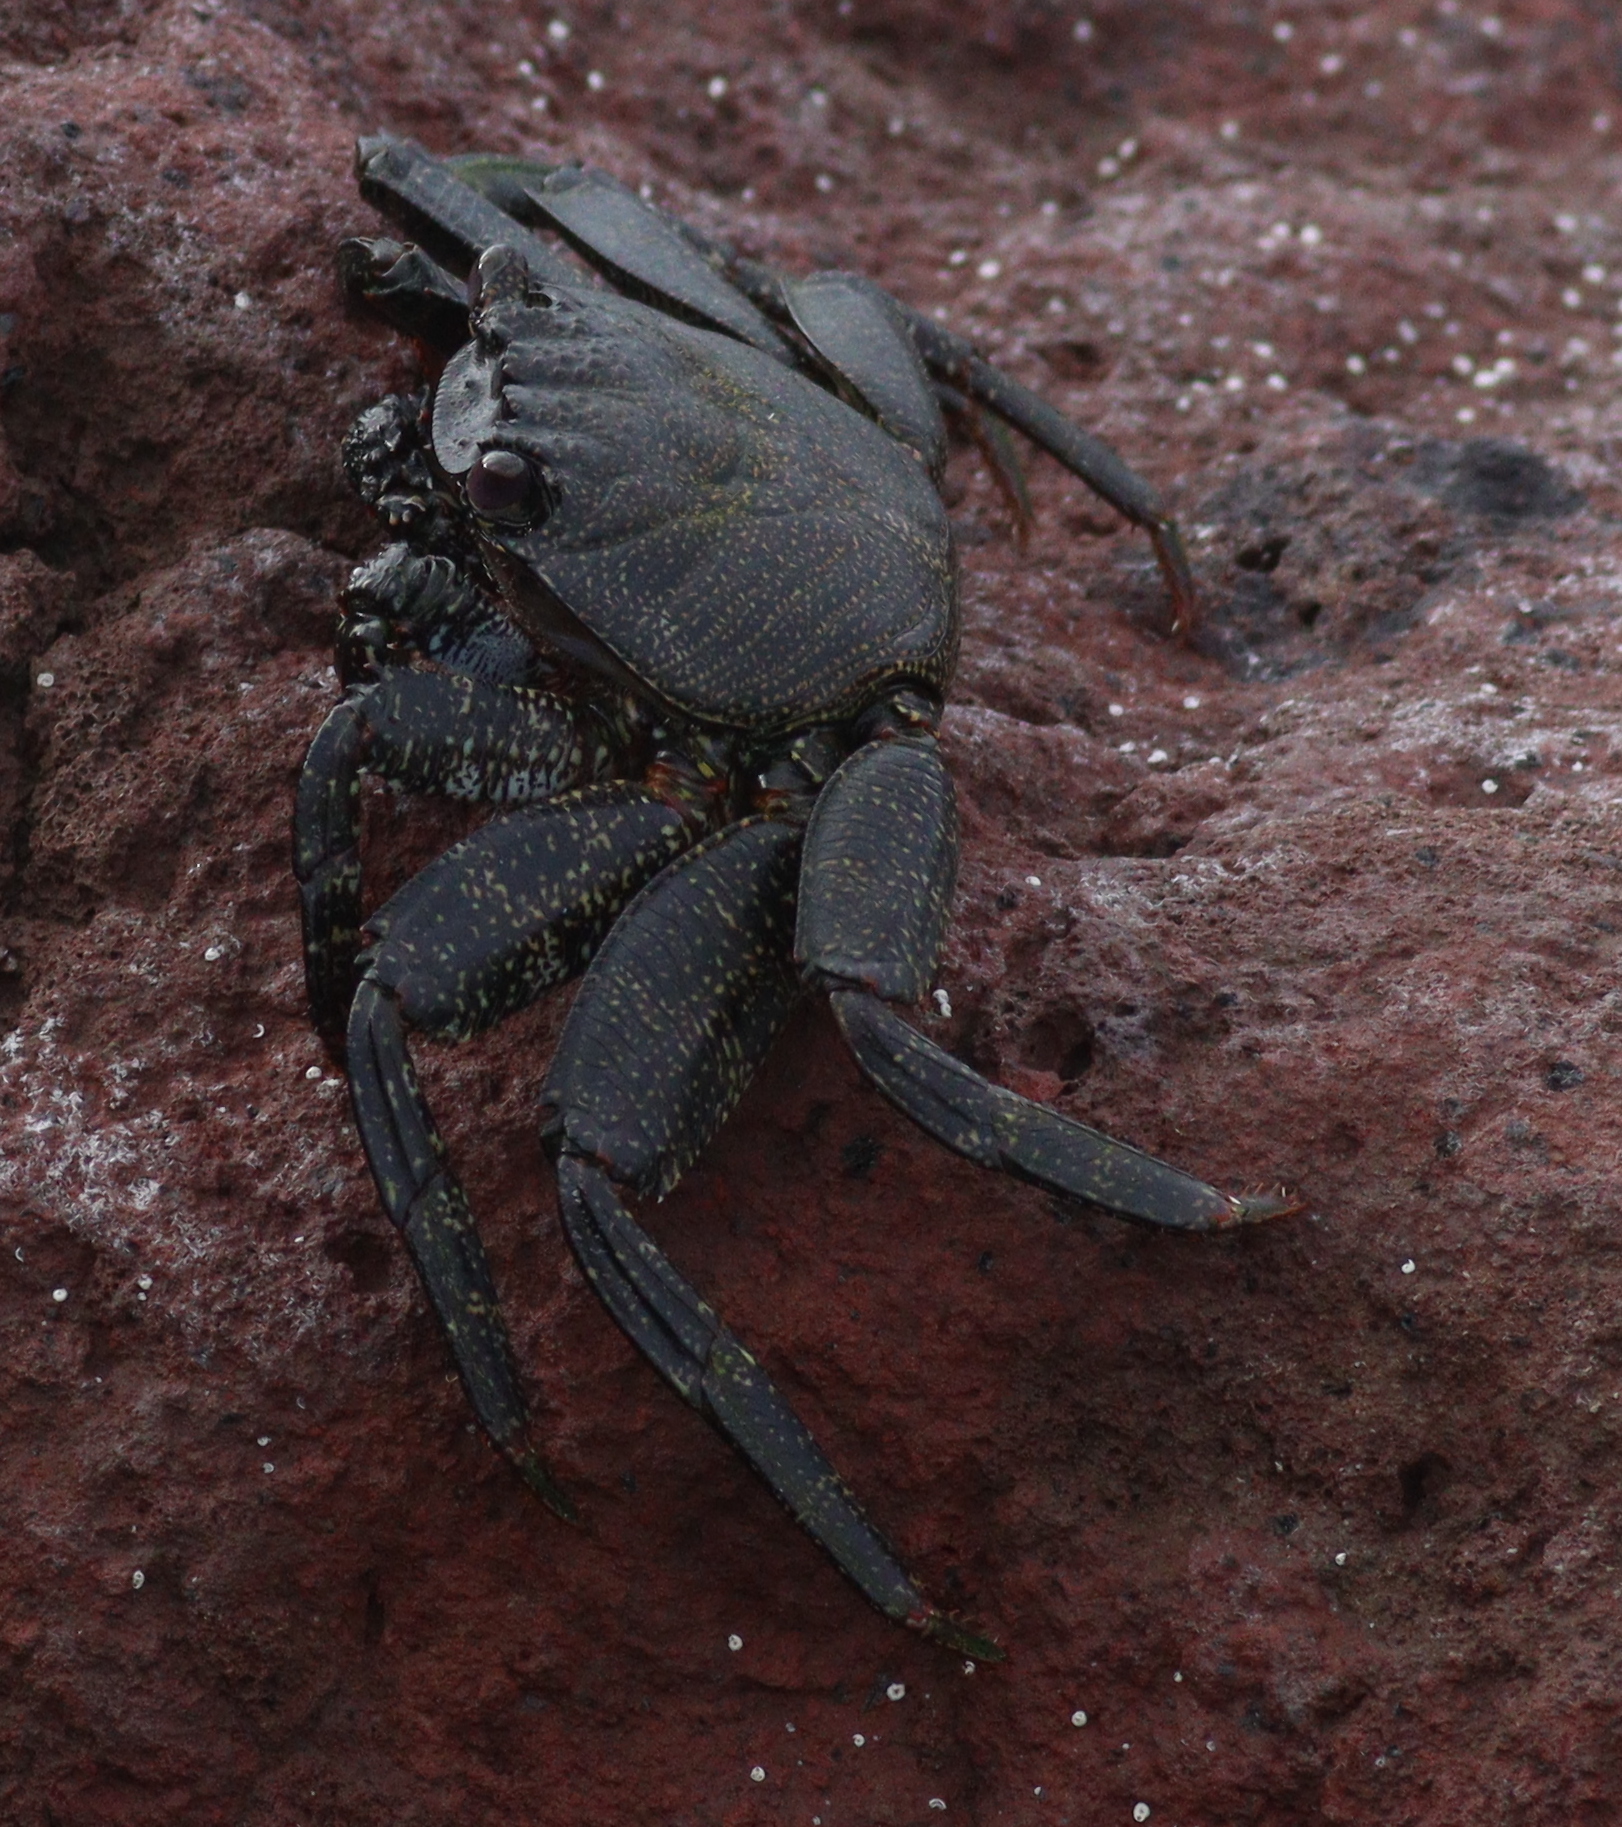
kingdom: Animalia
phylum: Arthropoda
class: Malacostraca
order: Decapoda
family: Grapsidae
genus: Grapsus
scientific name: Grapsus adscensionis
